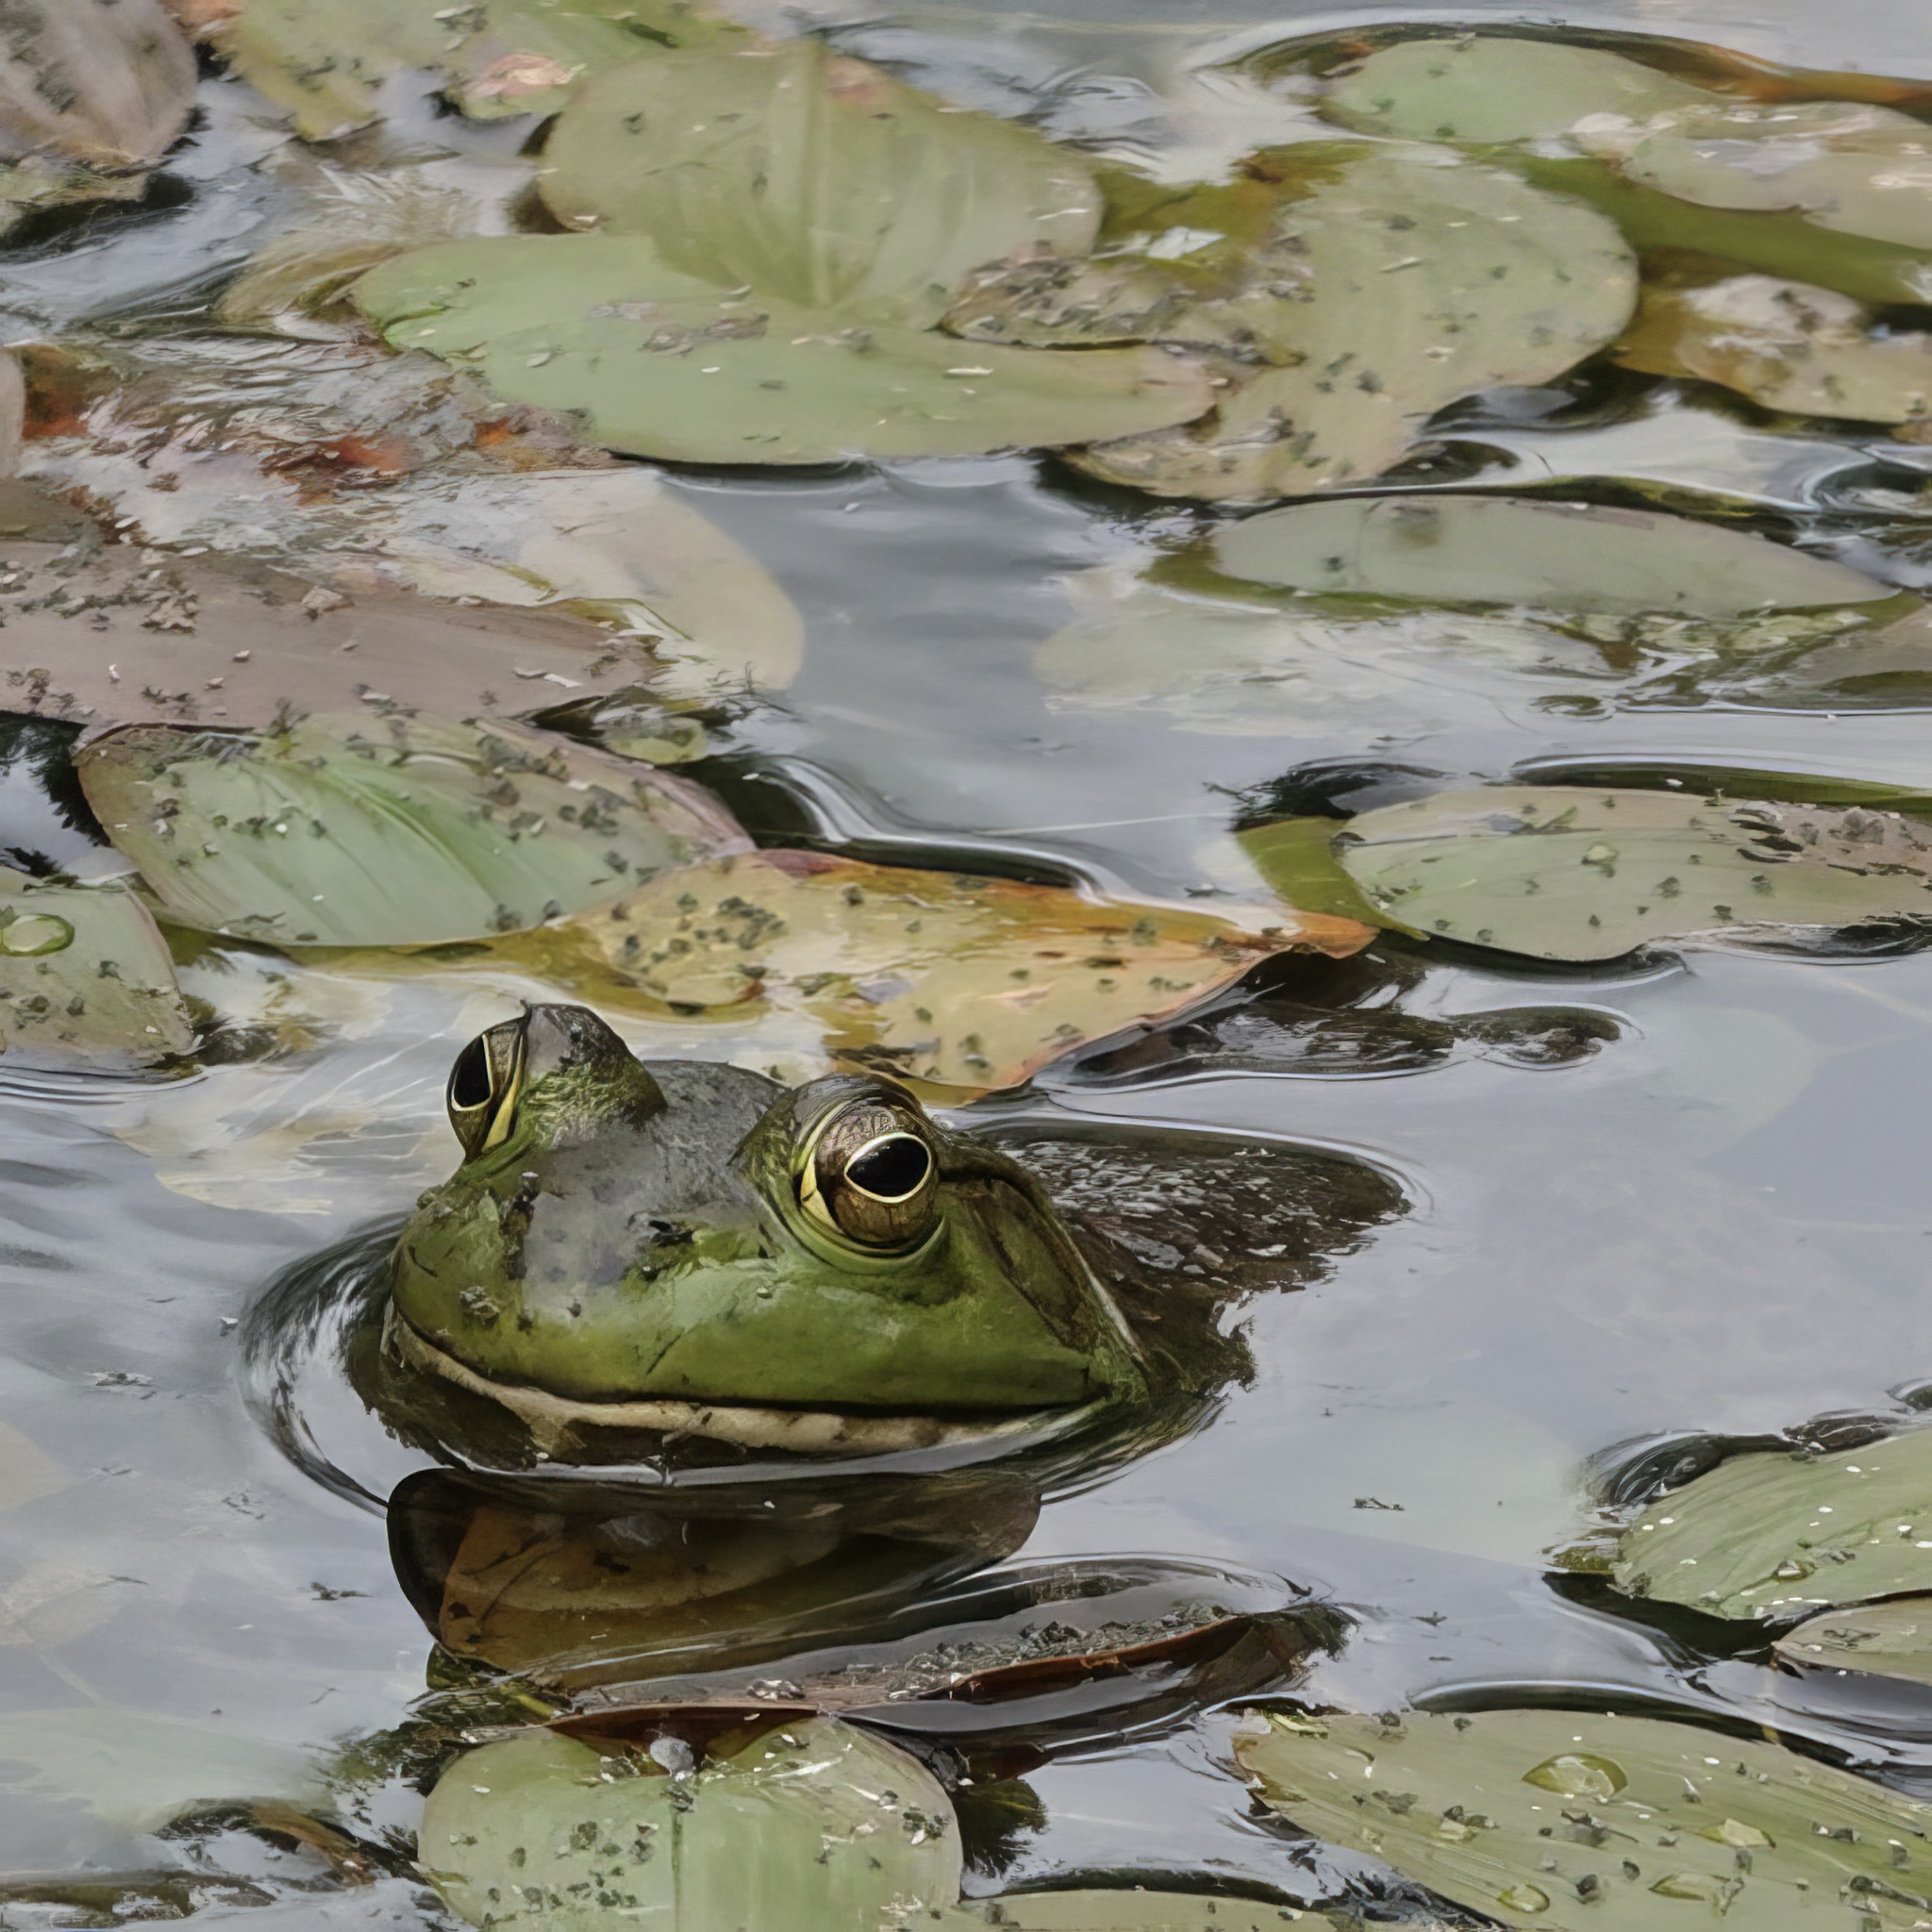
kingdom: Animalia
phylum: Chordata
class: Amphibia
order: Anura
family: Ranidae
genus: Lithobates
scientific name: Lithobates catesbeianus
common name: American bullfrog
